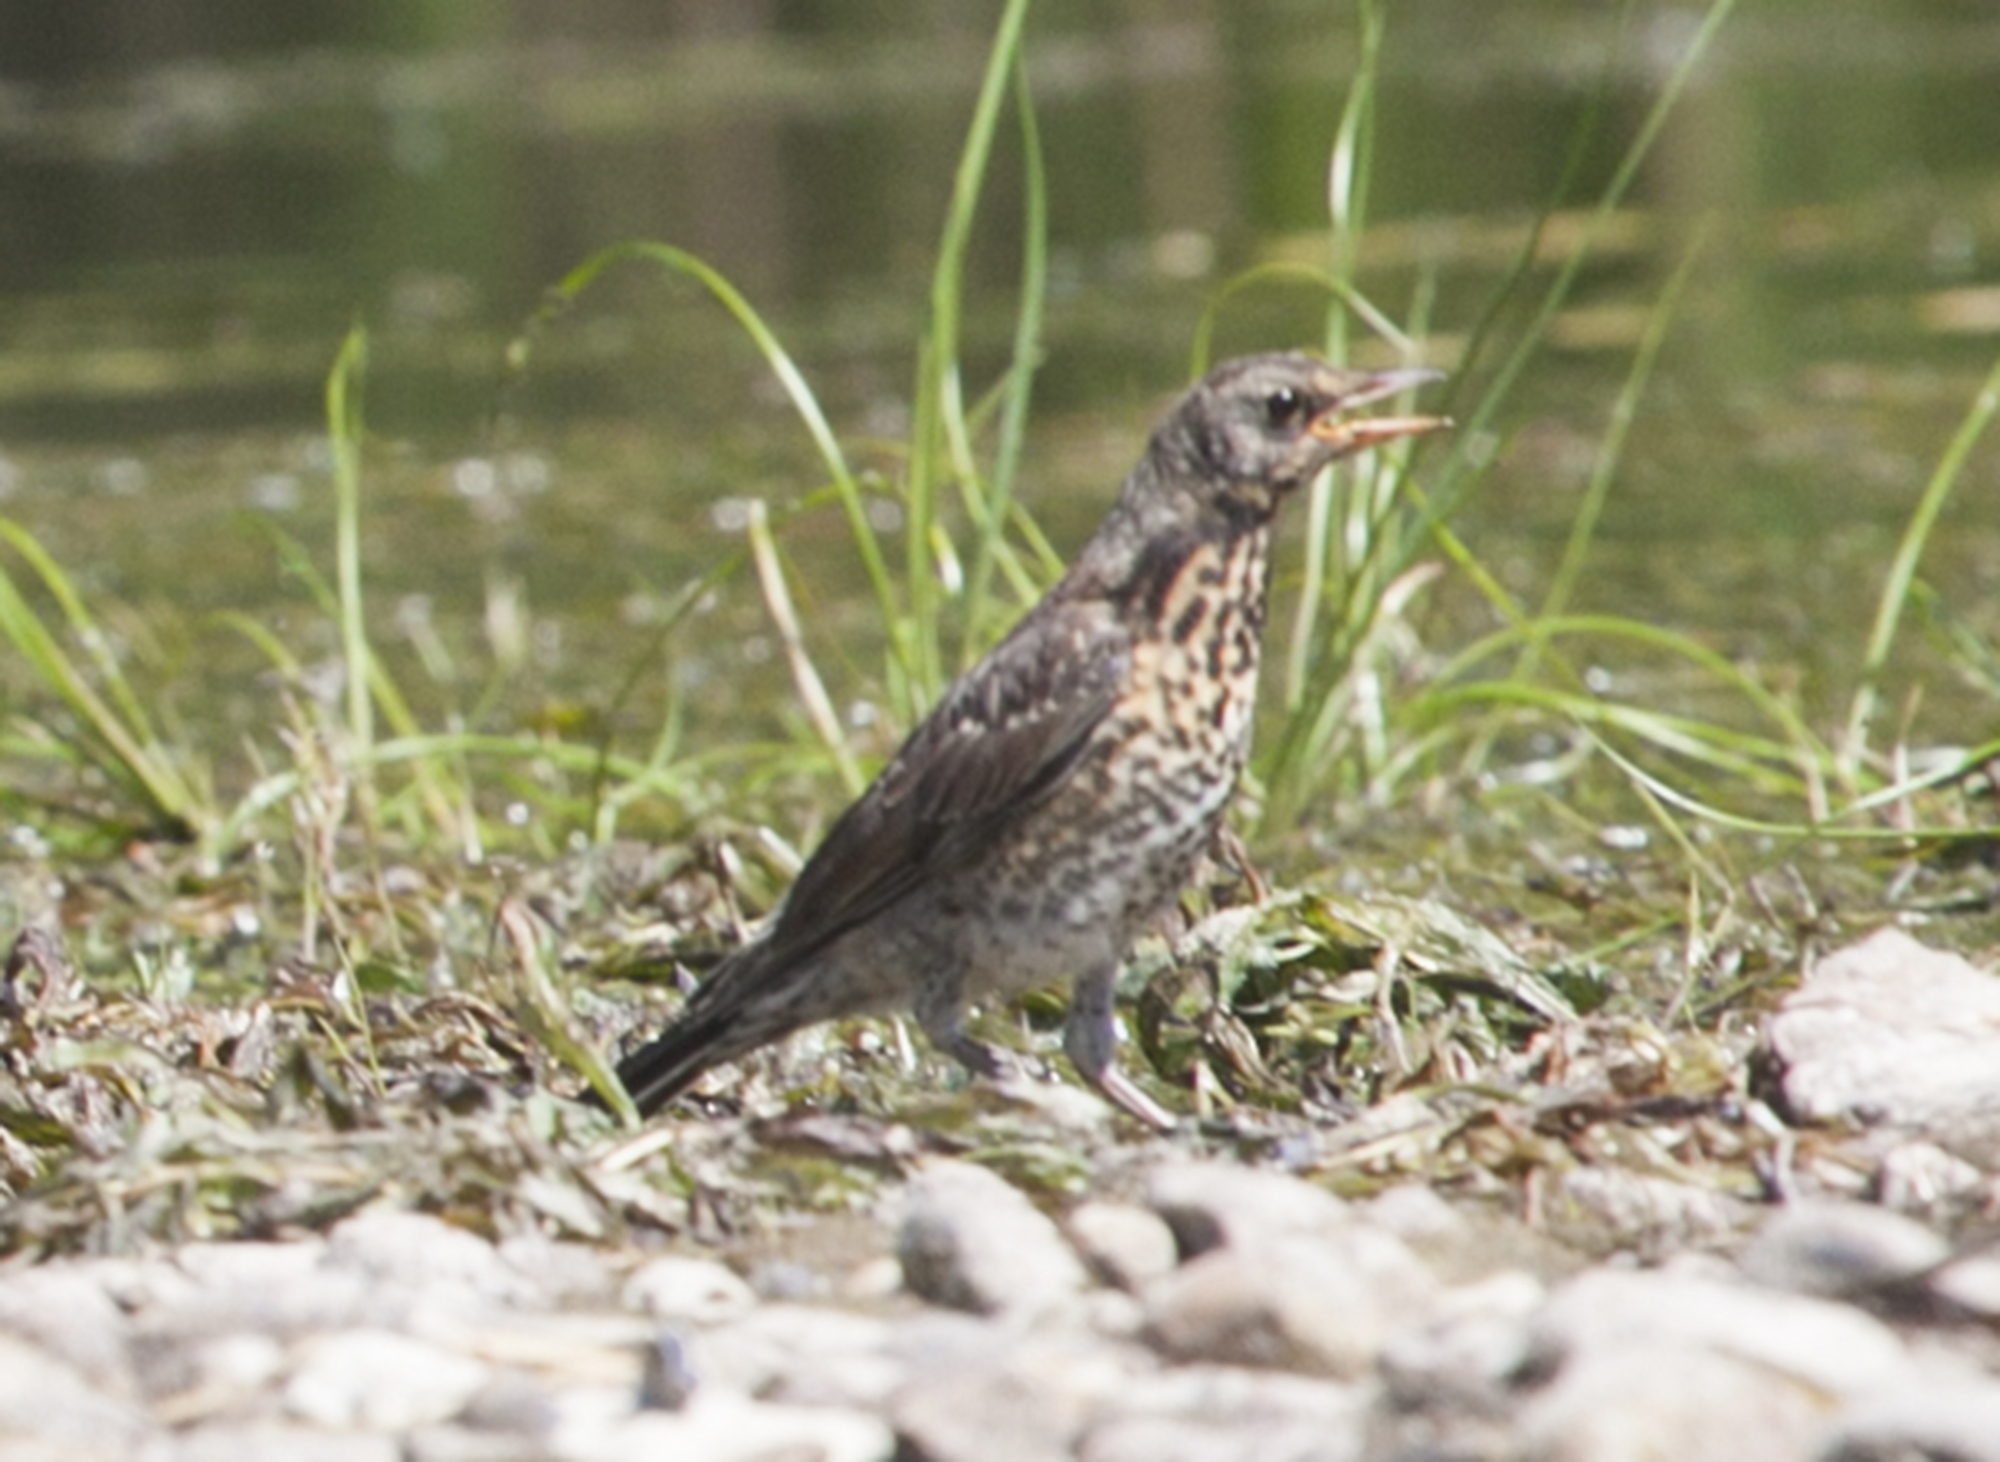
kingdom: Animalia
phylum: Chordata
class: Aves
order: Passeriformes
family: Turdidae
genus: Turdus
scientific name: Turdus pilaris
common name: Fieldfare
